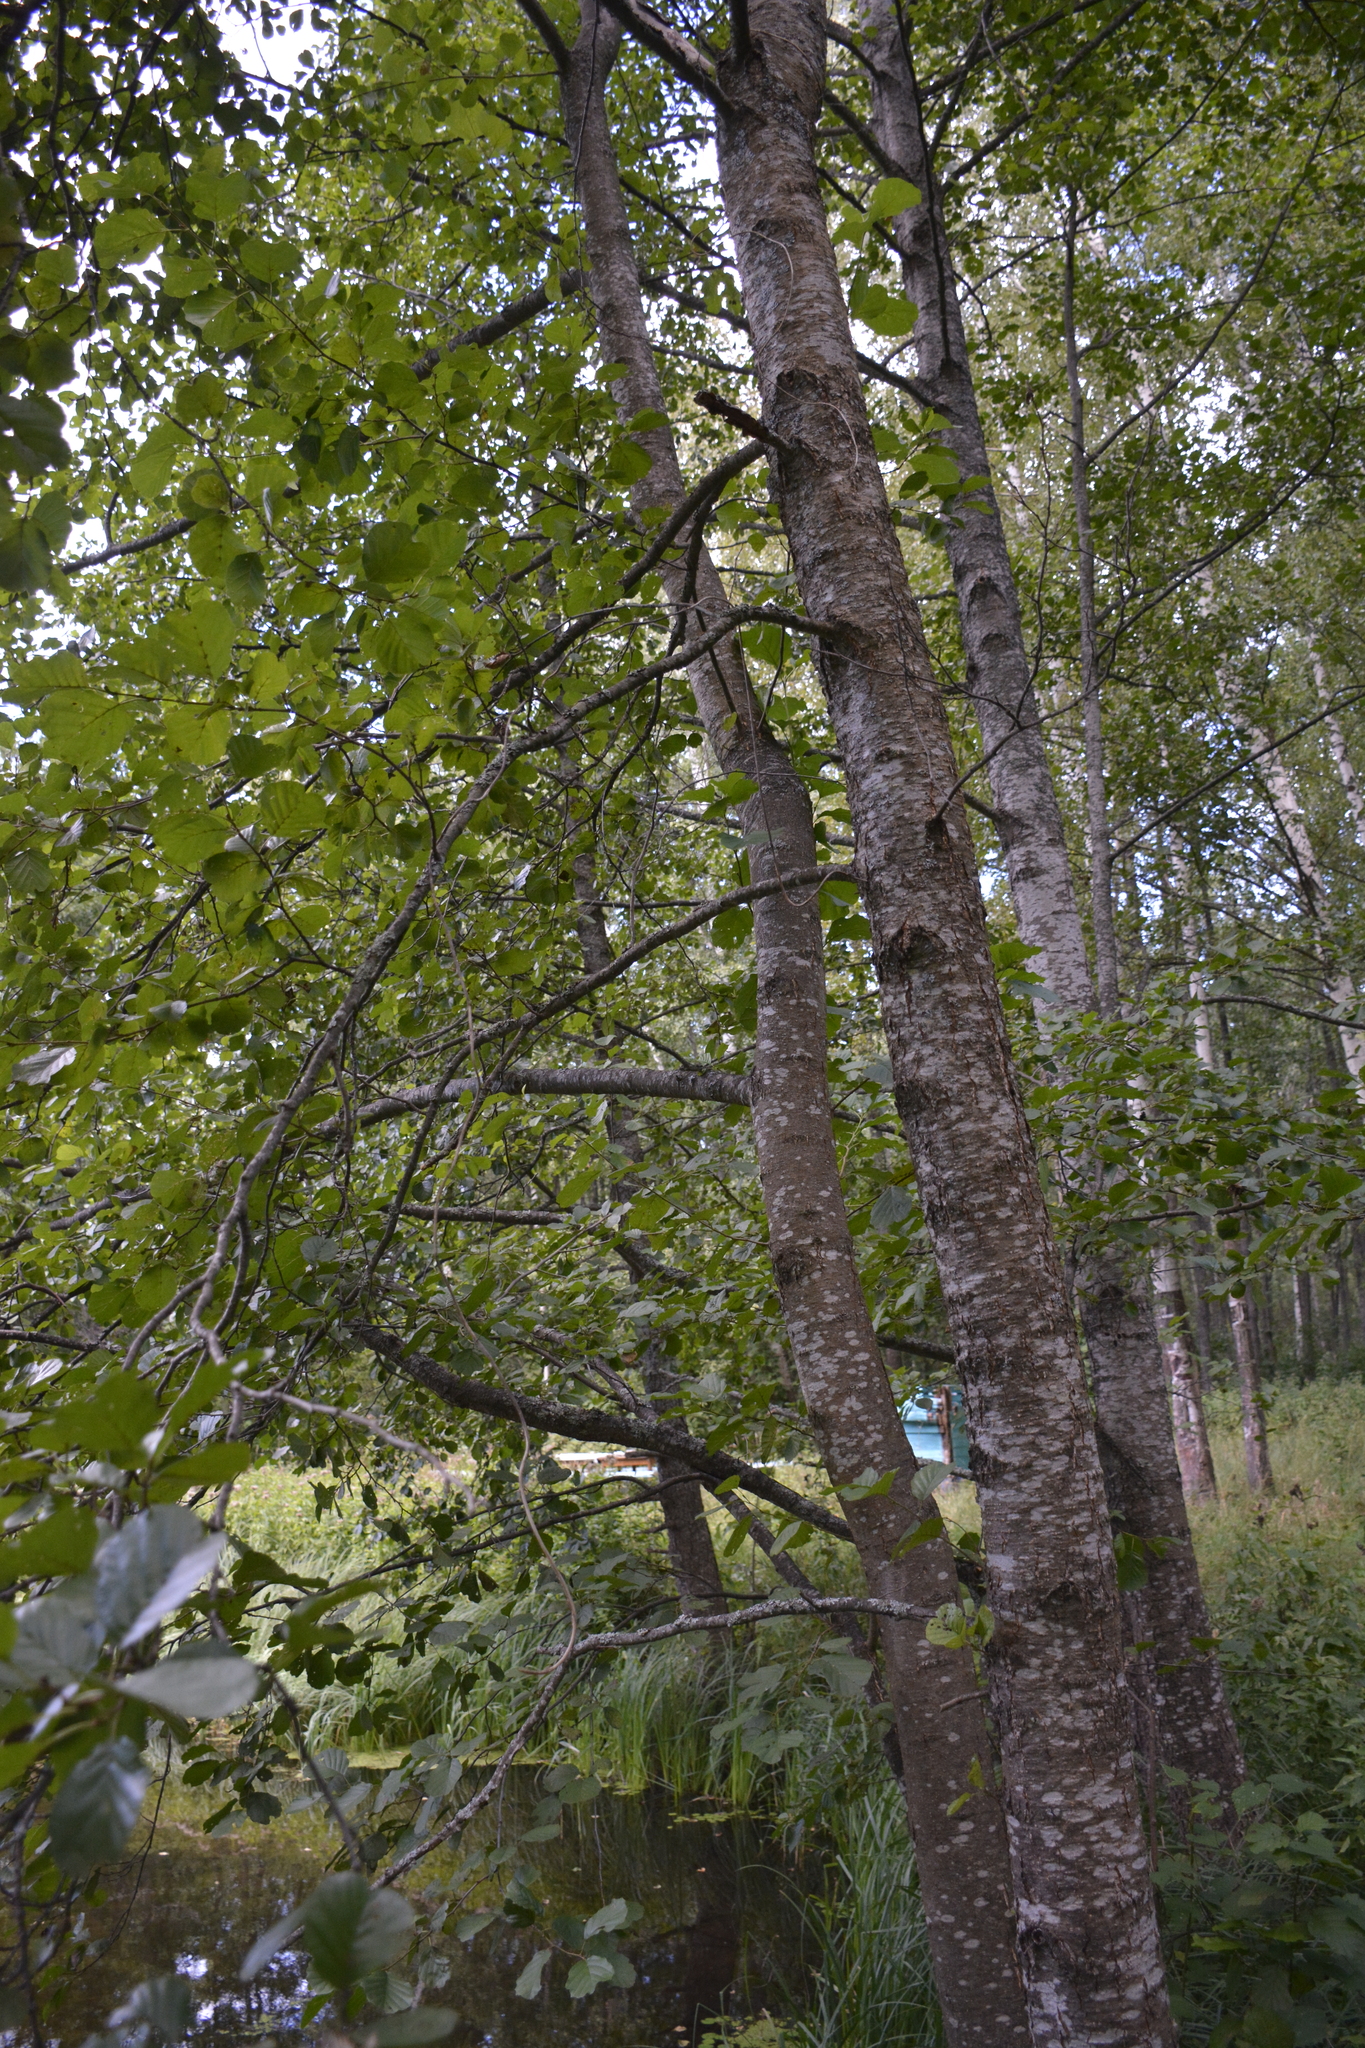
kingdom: Plantae
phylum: Tracheophyta
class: Magnoliopsida
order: Fagales
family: Betulaceae
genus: Alnus
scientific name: Alnus glutinosa
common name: Black alder
